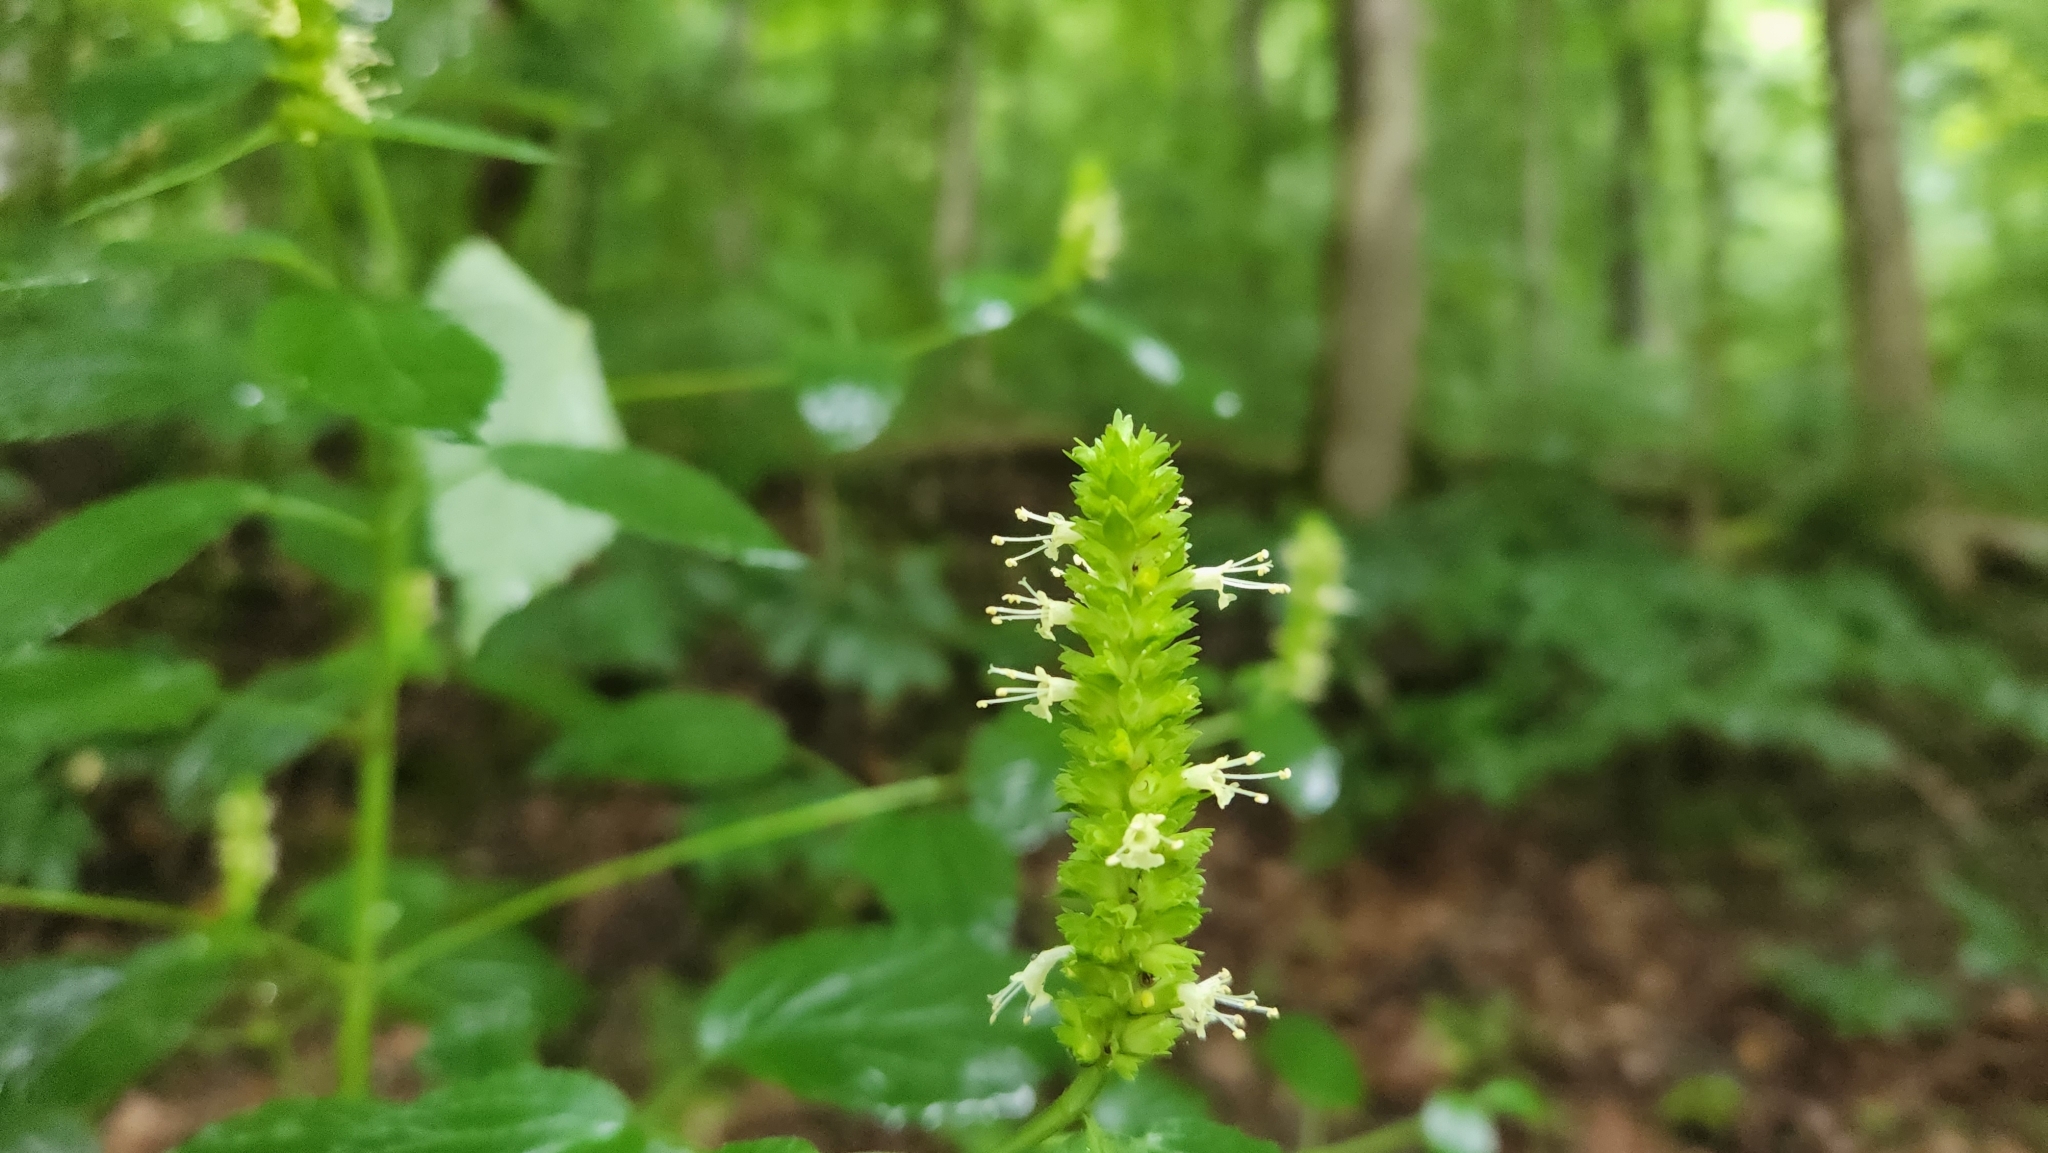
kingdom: Plantae
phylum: Tracheophyta
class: Magnoliopsida
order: Lamiales
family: Lamiaceae
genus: Agastache
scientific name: Agastache nepetoides
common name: Catnip giant hyssop
